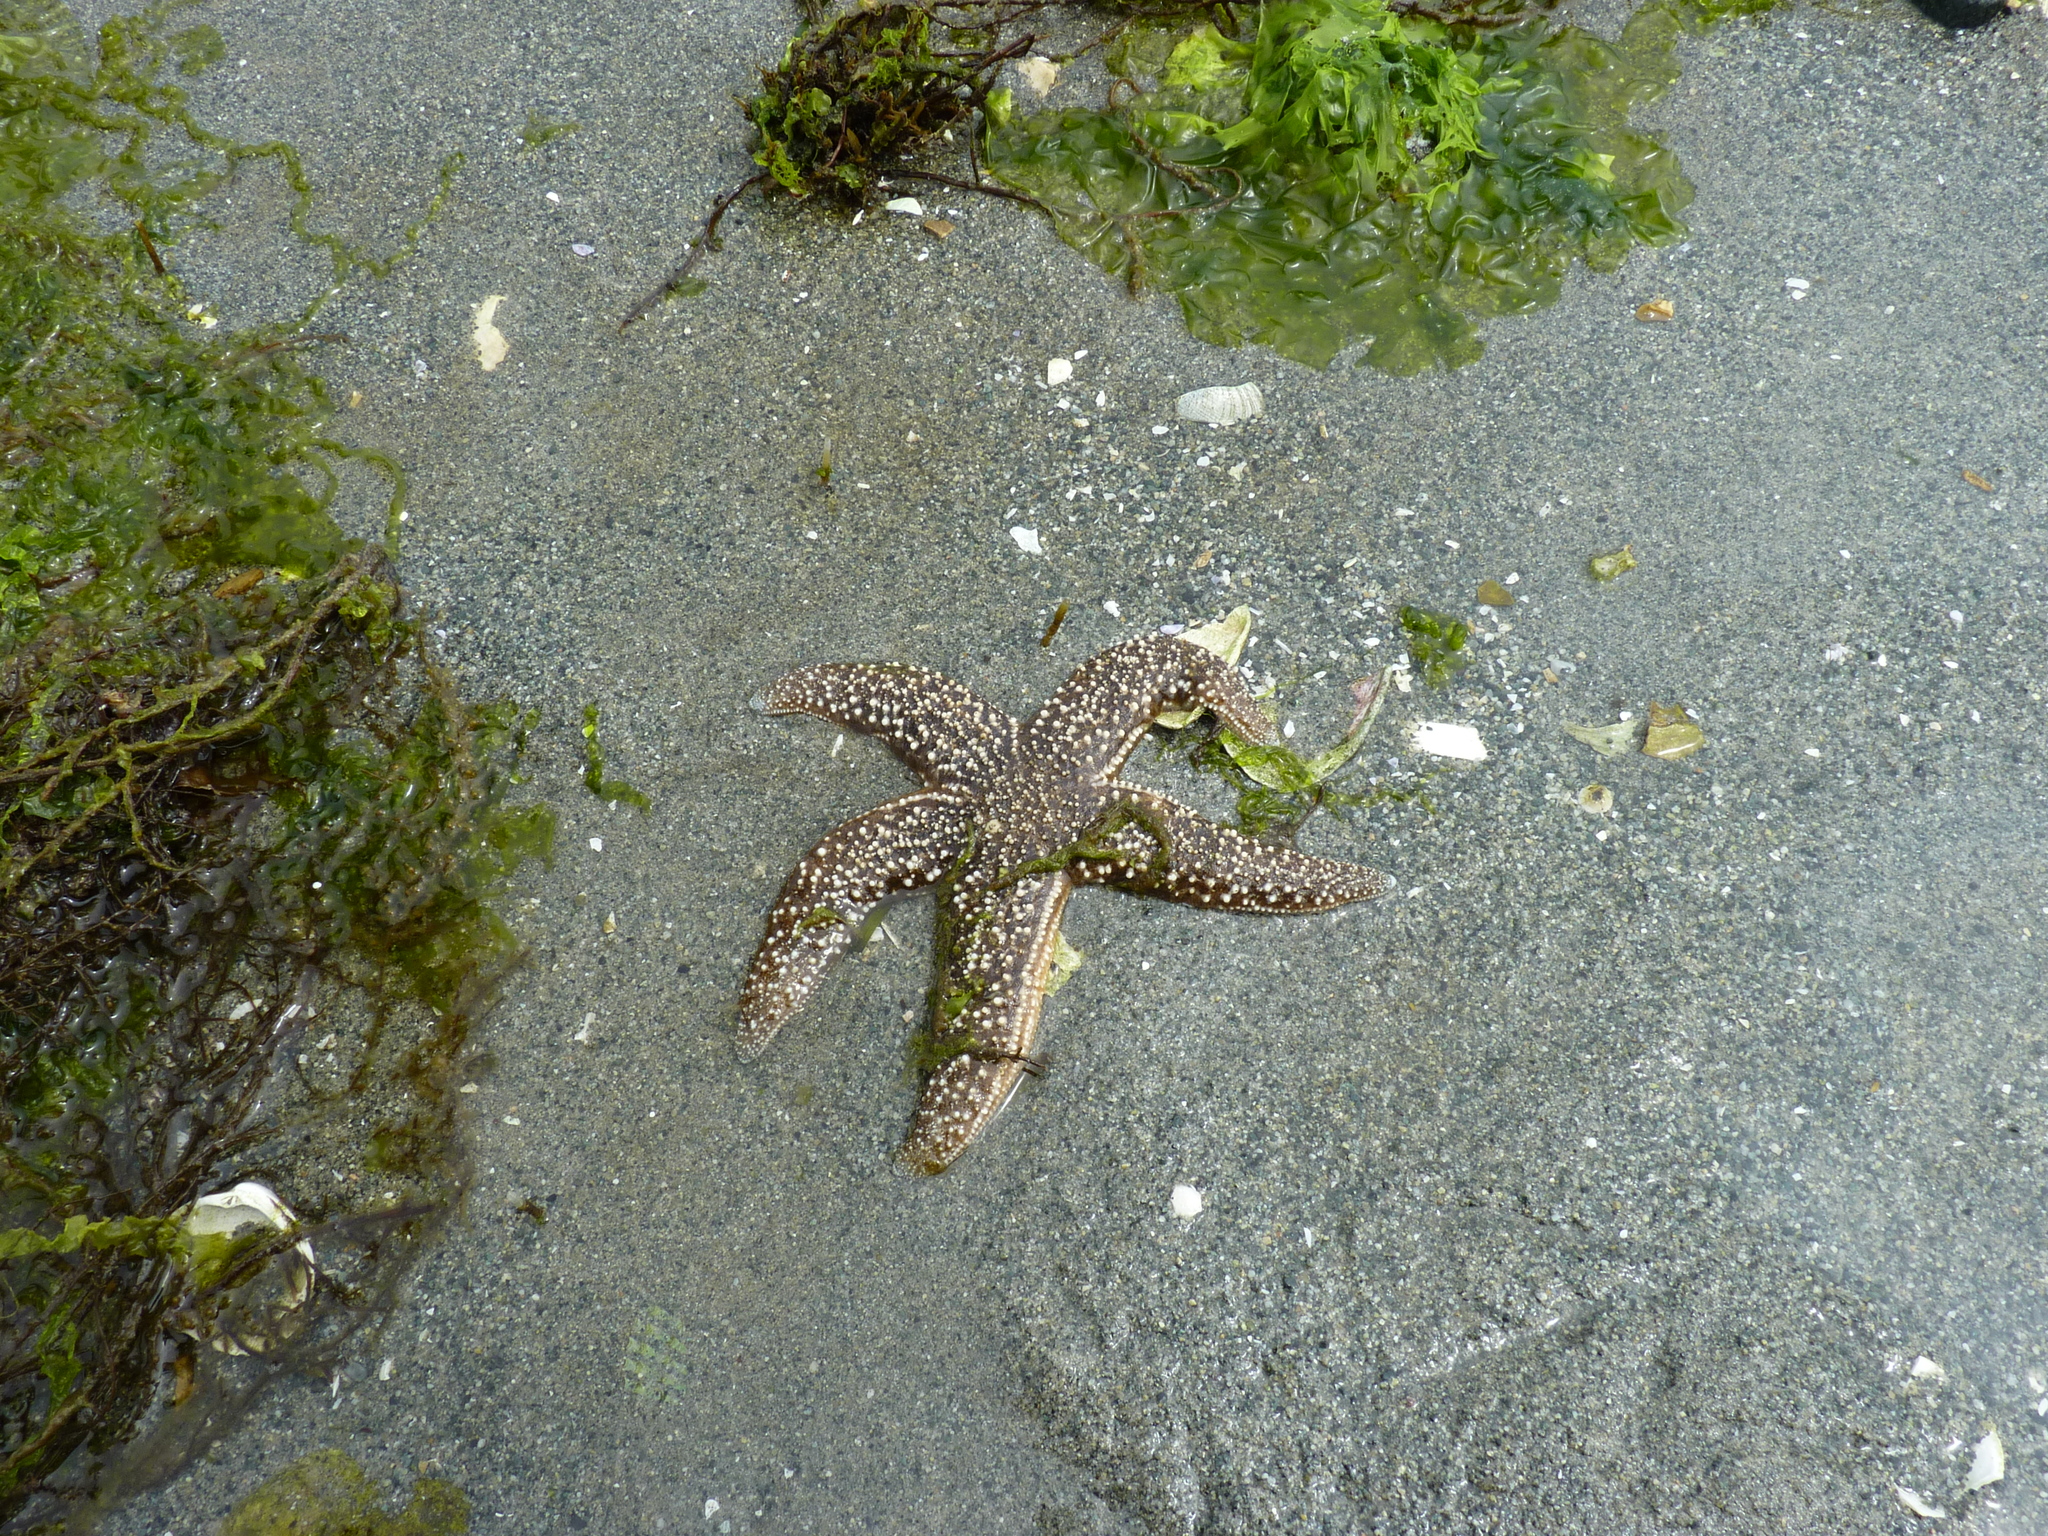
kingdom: Animalia
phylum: Echinodermata
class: Asteroidea
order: Forcipulatida
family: Asteriidae
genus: Evasterias
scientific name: Evasterias troschelii
